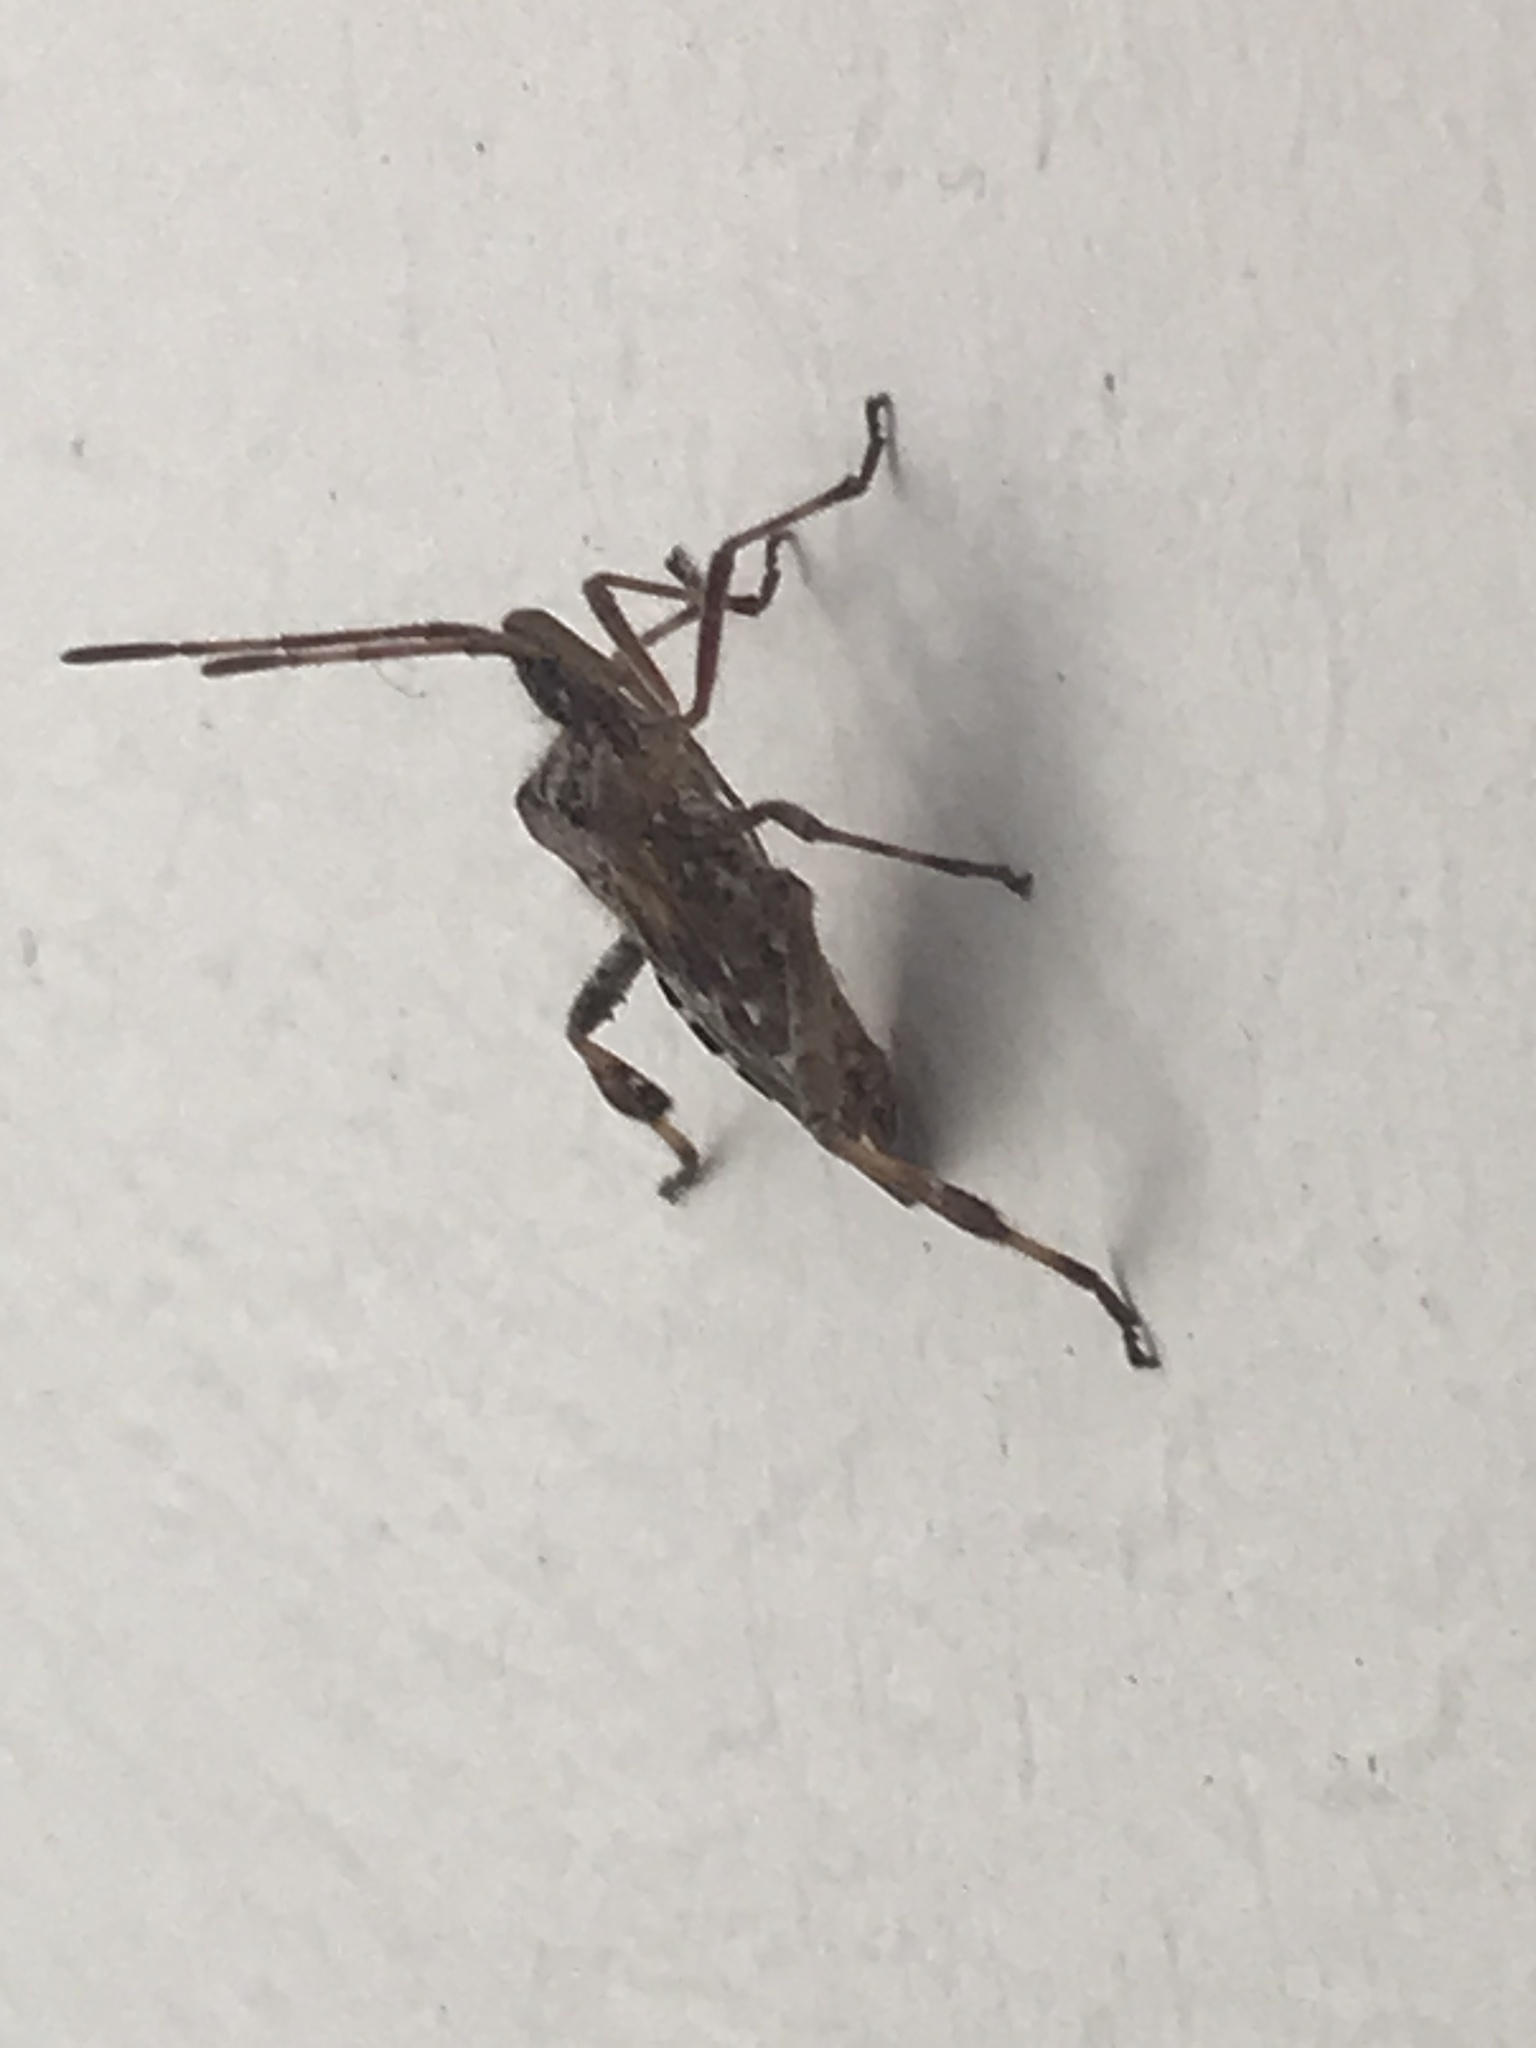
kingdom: Animalia
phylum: Arthropoda
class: Insecta
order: Hemiptera
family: Coreidae
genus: Leptoglossus
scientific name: Leptoglossus occidentalis
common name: Western conifer-seed bug
